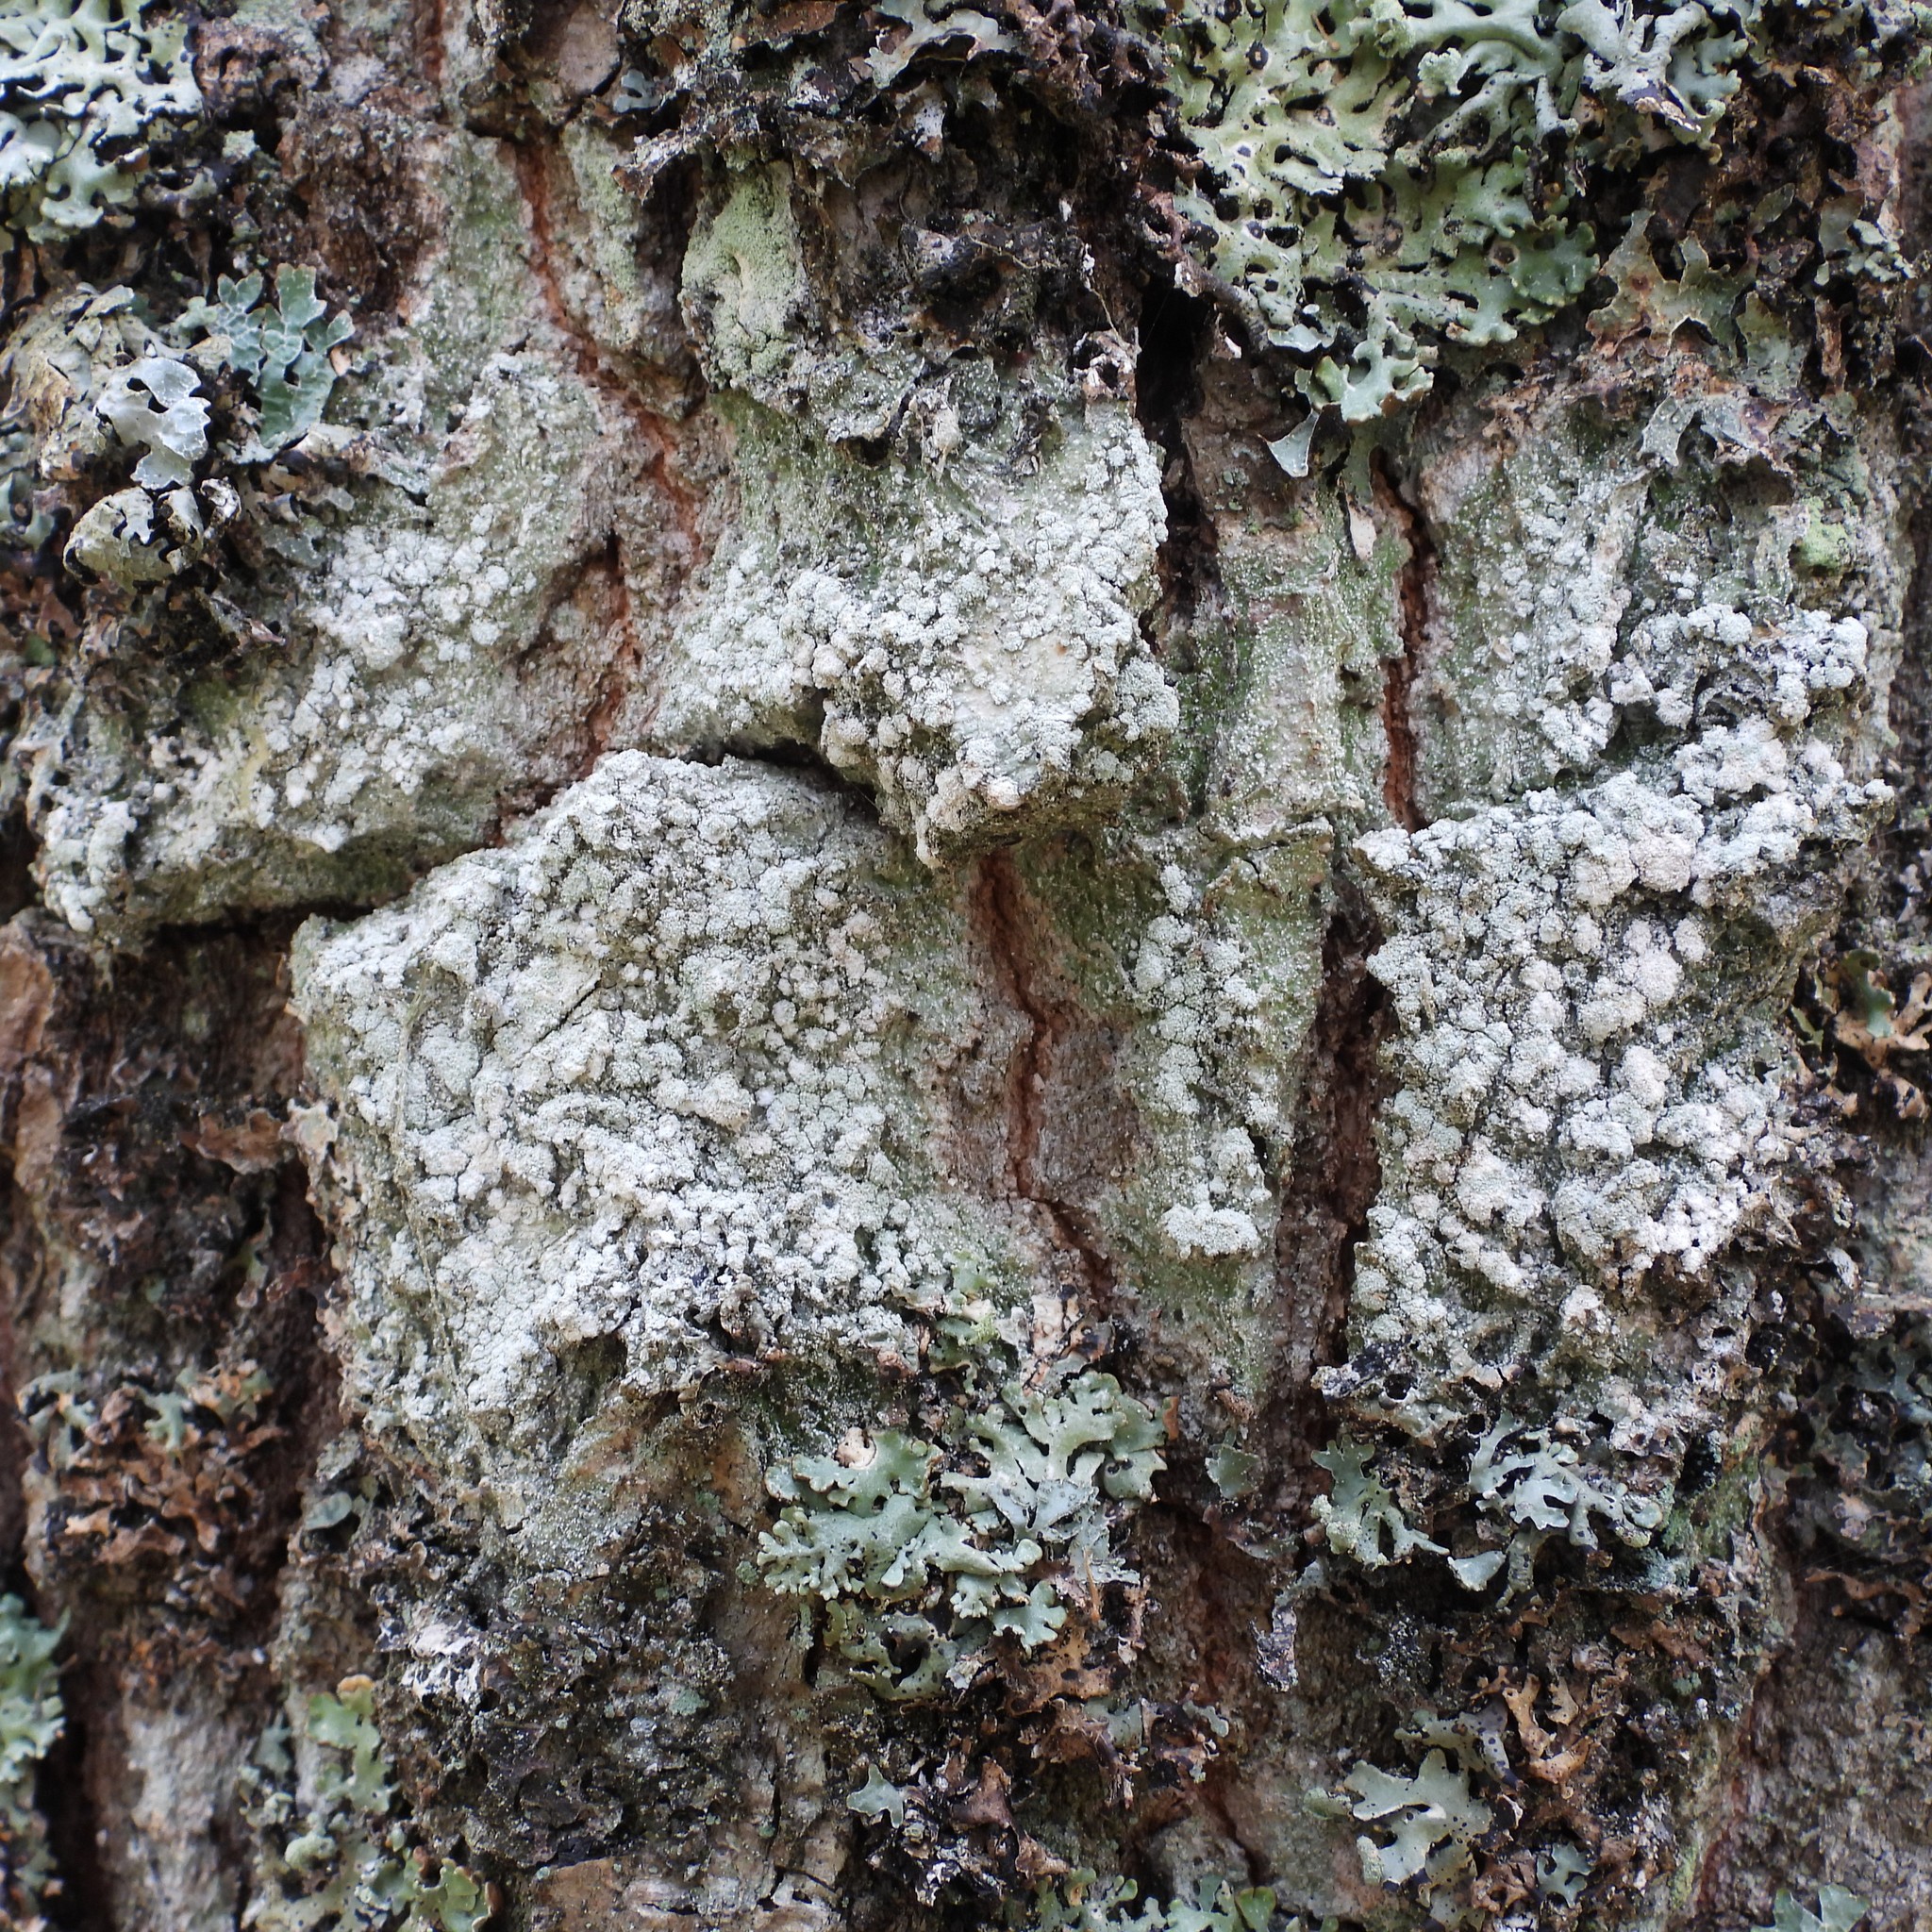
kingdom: Fungi
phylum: Ascomycota
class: Lecanoromycetes
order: Pertusariales
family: Pertusariaceae
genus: Lepra
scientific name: Lepra albescens
